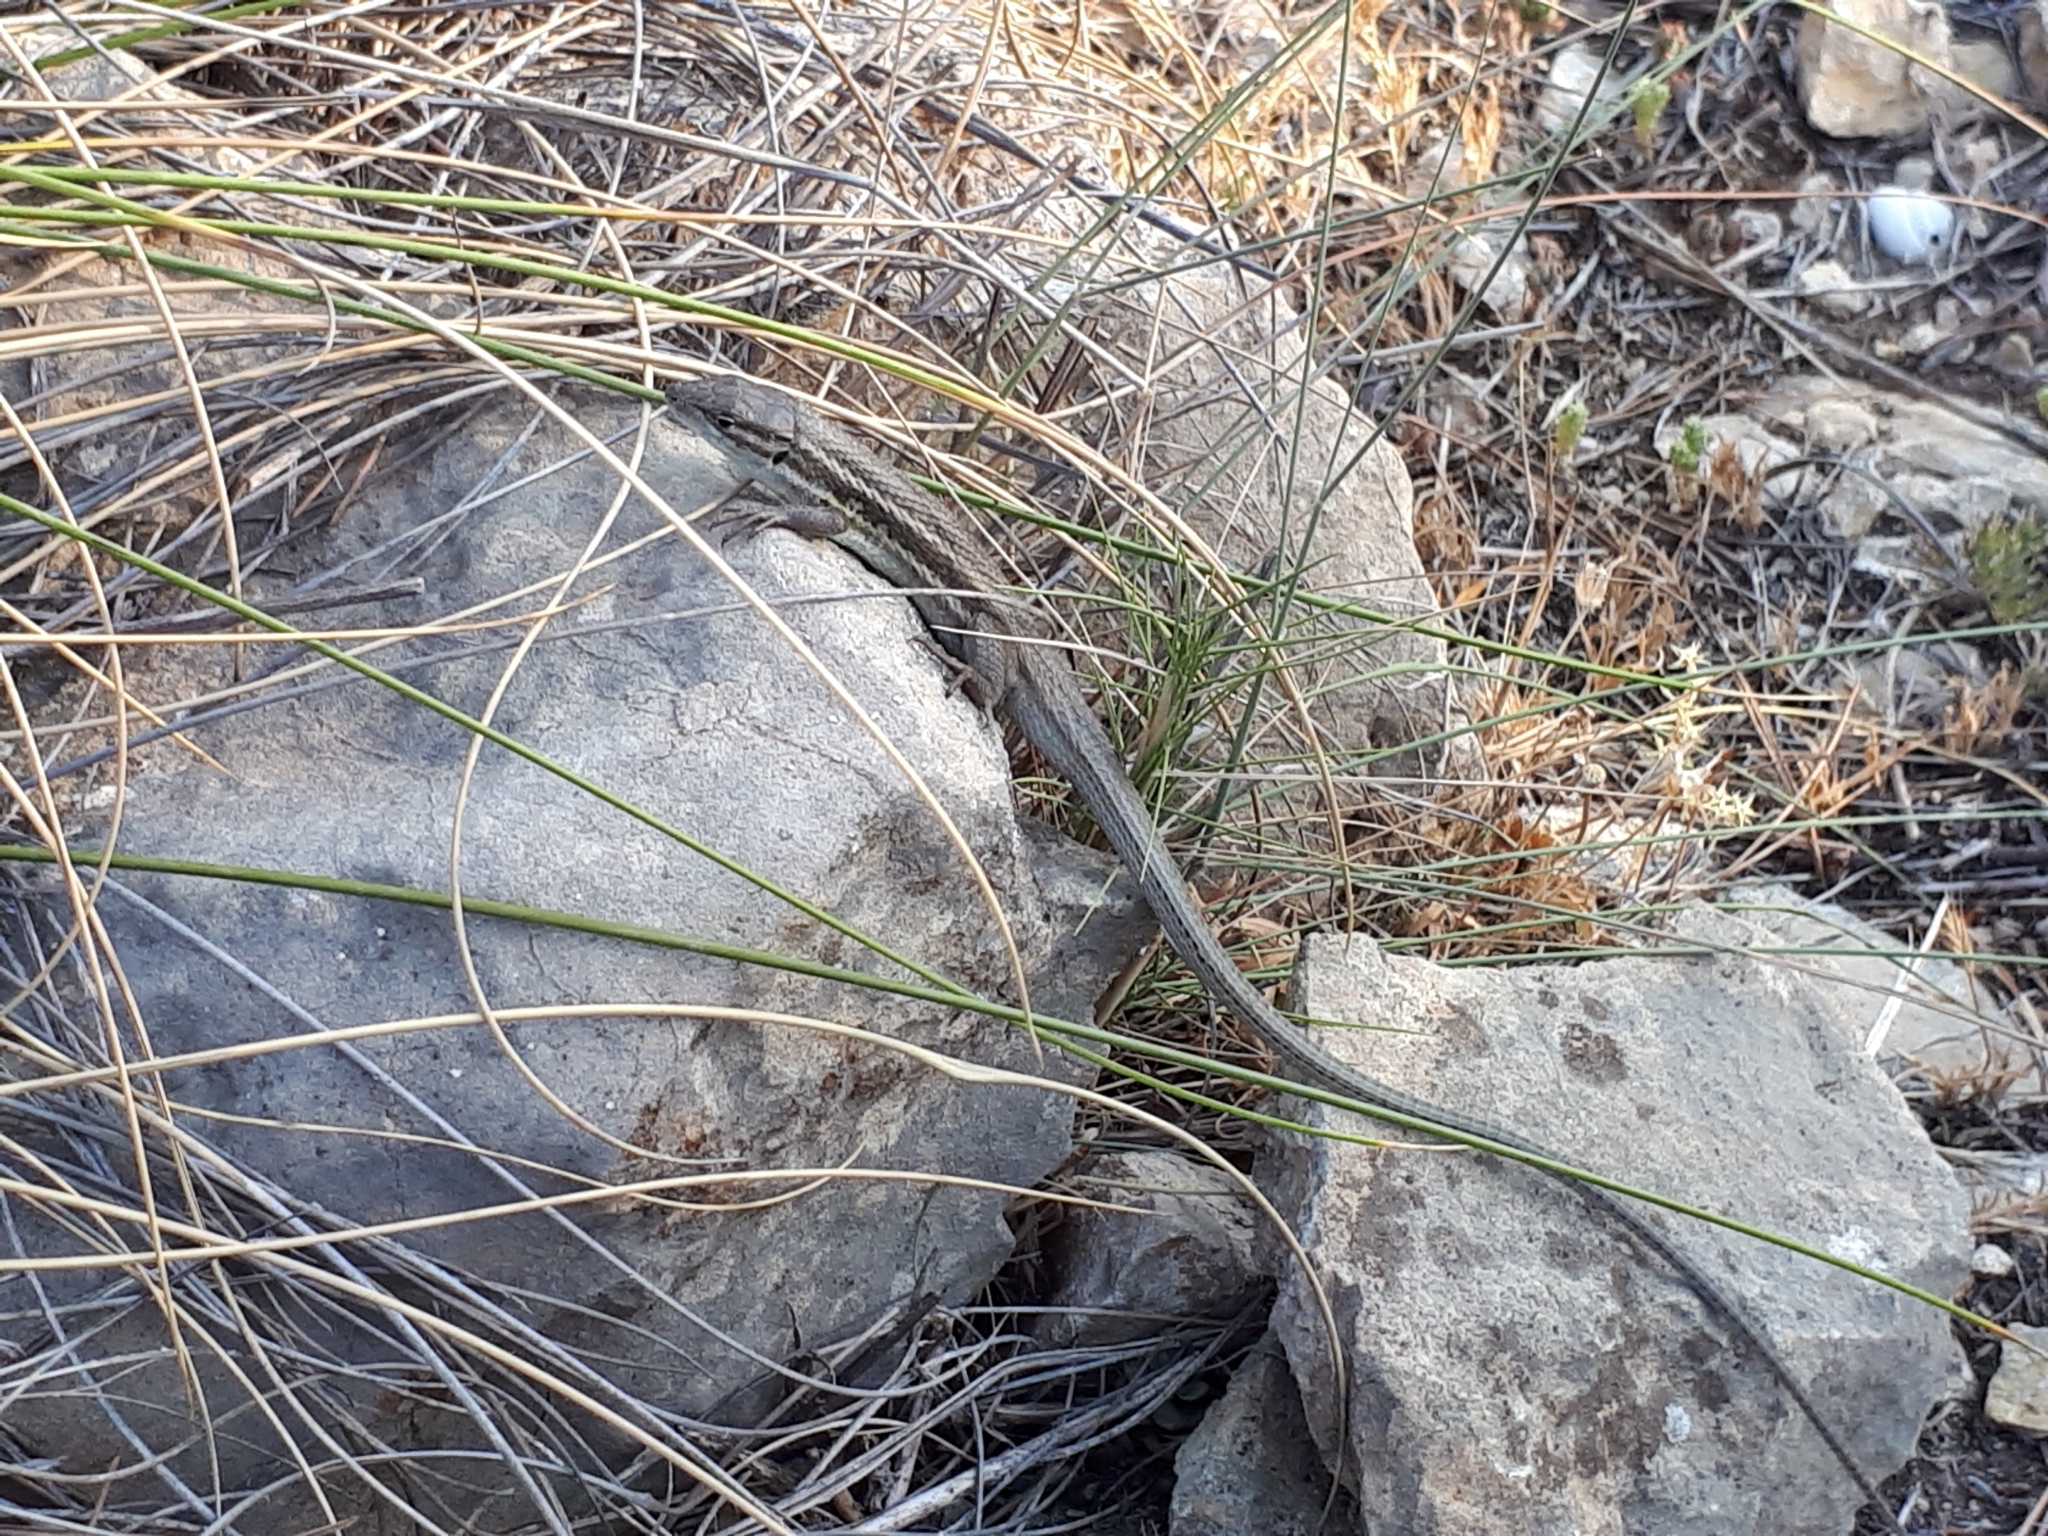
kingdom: Animalia
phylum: Chordata
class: Squamata
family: Lacertidae
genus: Psammodromus
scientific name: Psammodromus algirus
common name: Algerian psammodromus
